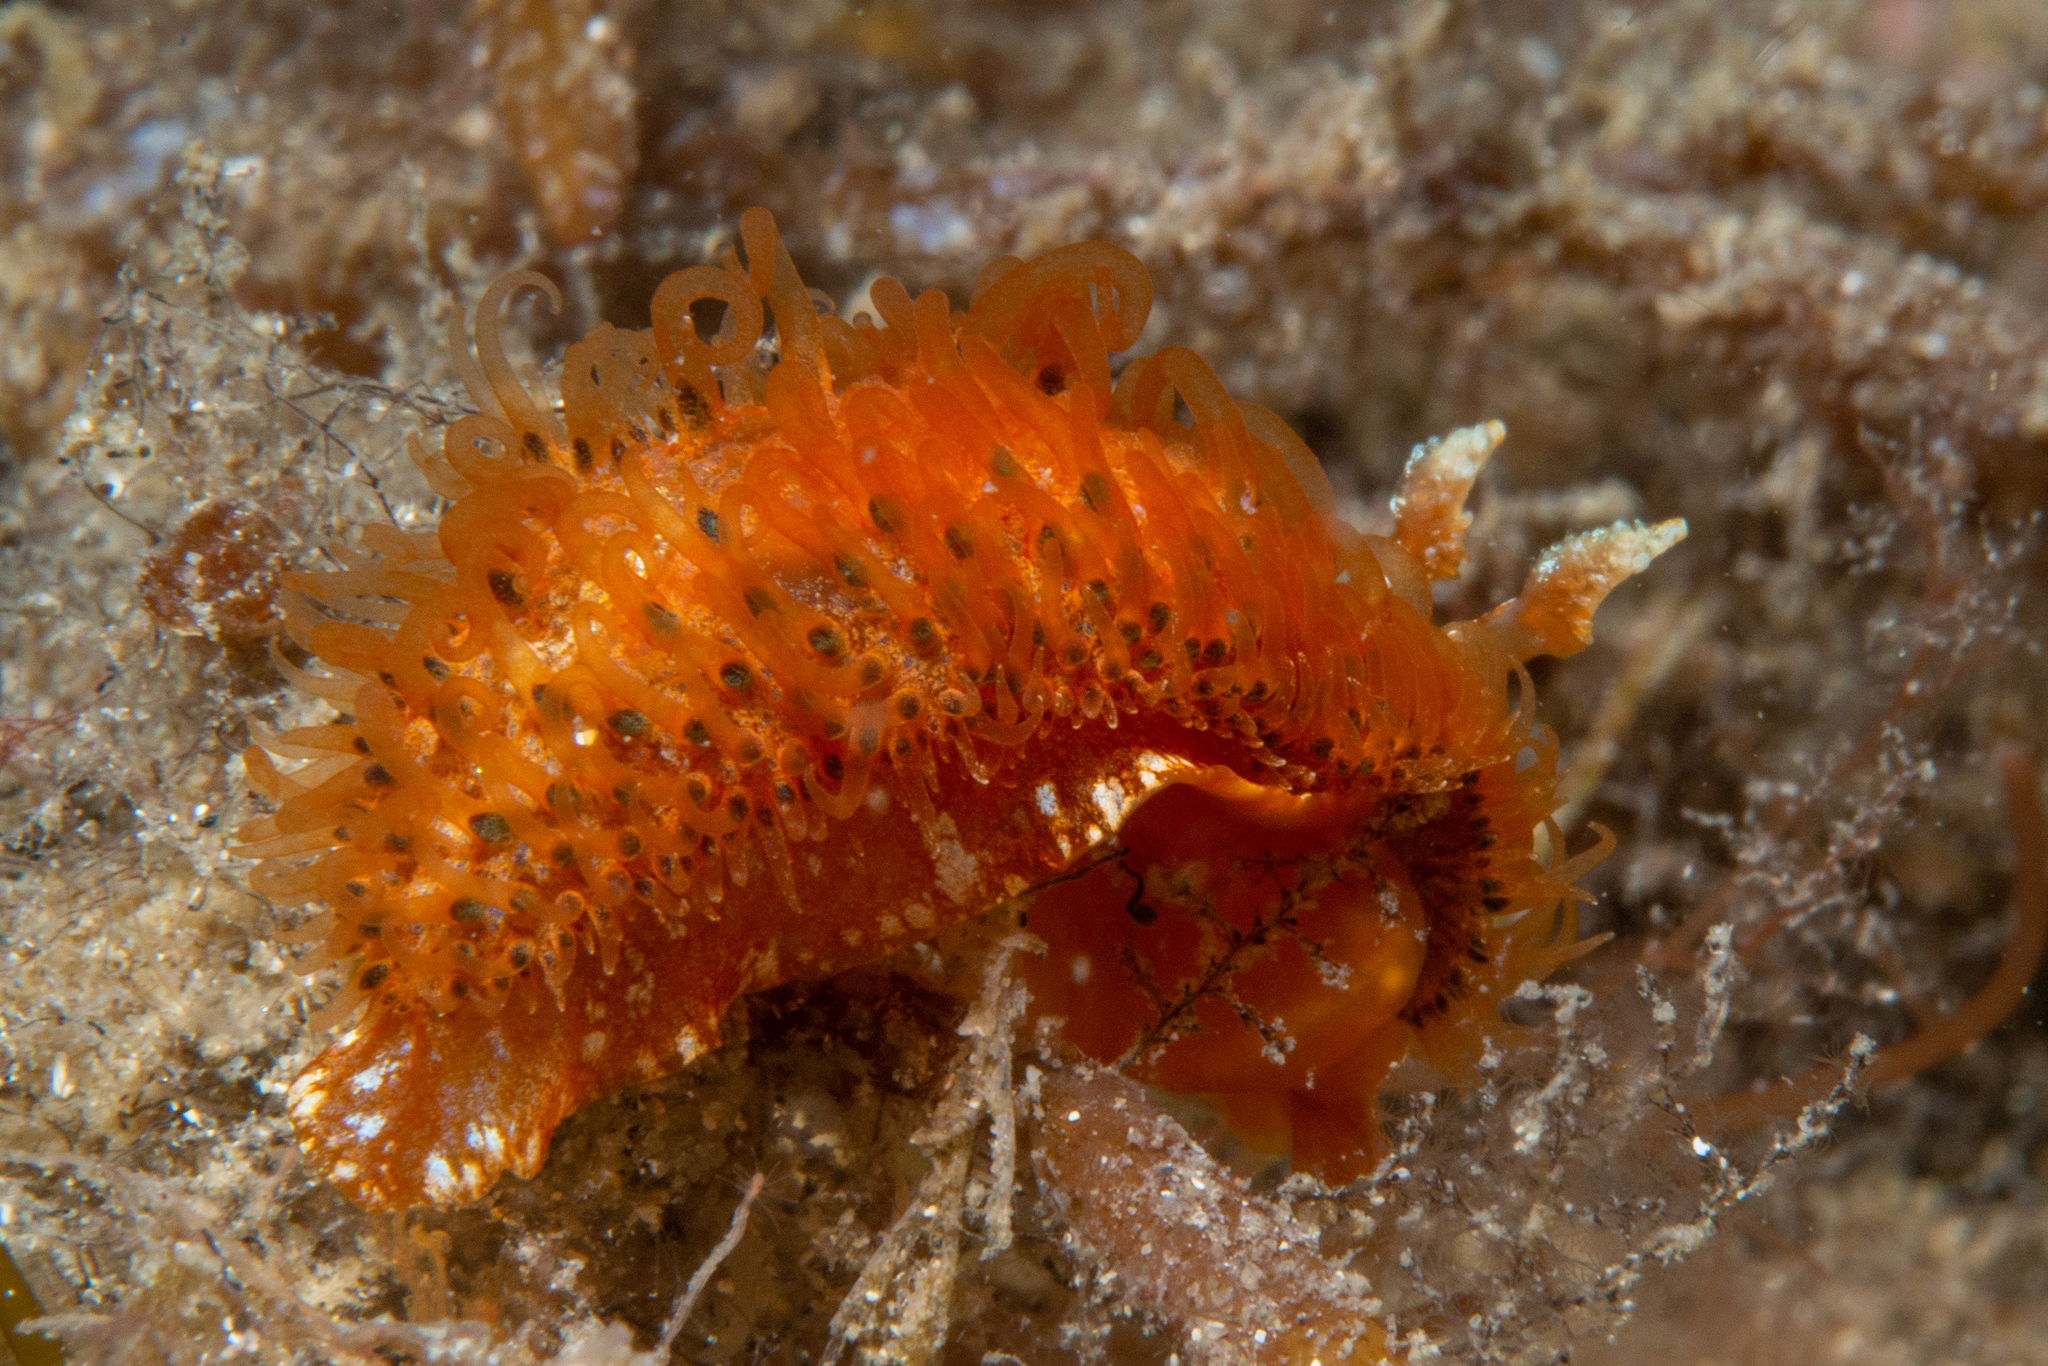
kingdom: Animalia
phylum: Mollusca
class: Gastropoda
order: Nudibranchia
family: Madrellidae
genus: Madrella
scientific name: Madrella ferruginosa
